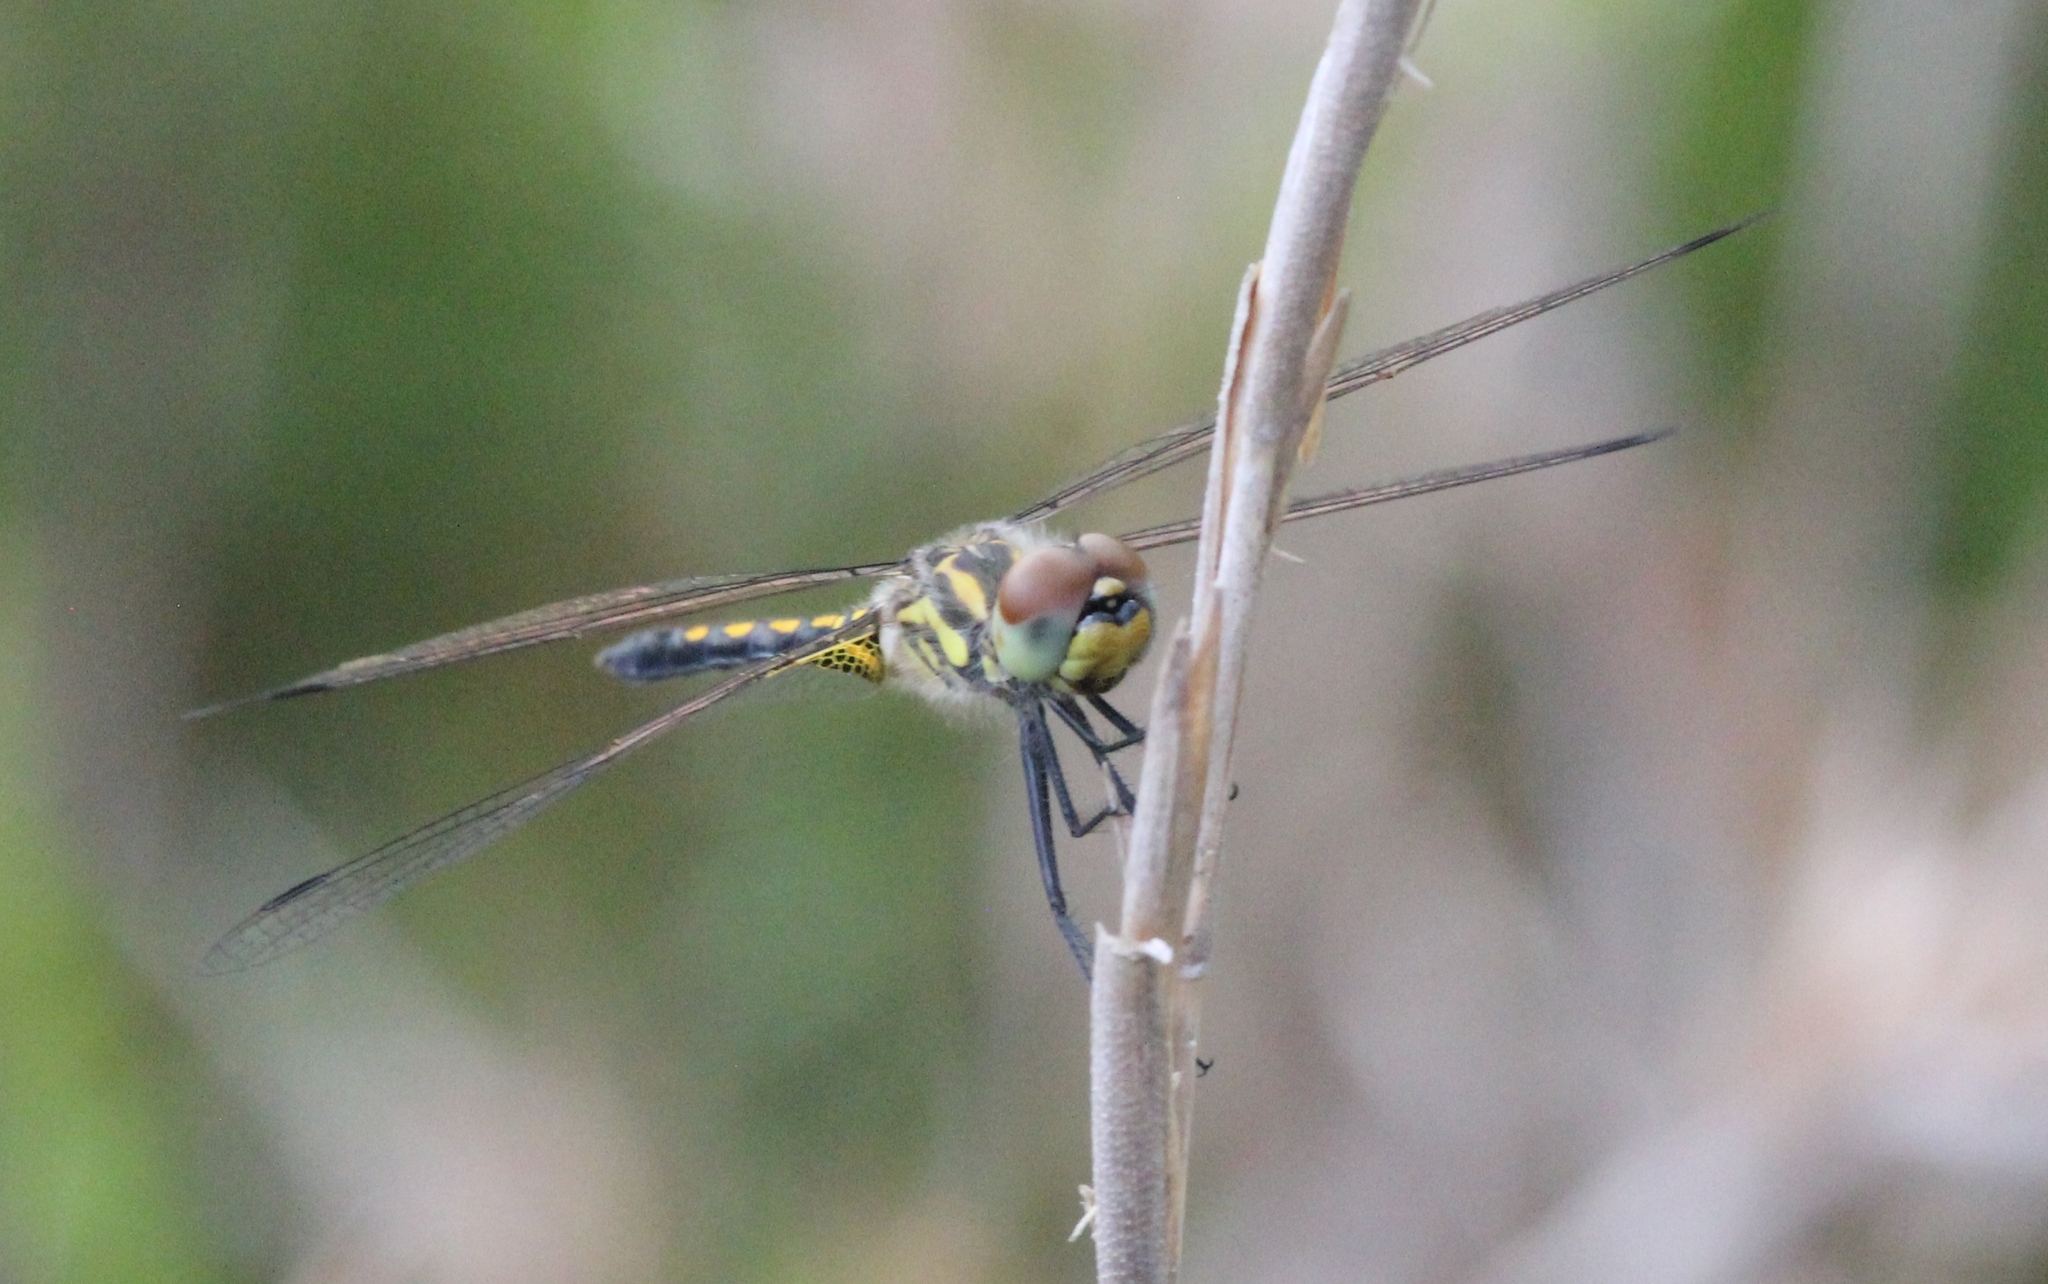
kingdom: Animalia
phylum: Arthropoda
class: Insecta
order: Odonata
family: Libellulidae
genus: Celithemis
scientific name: Celithemis ornata
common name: Ornate pennant
